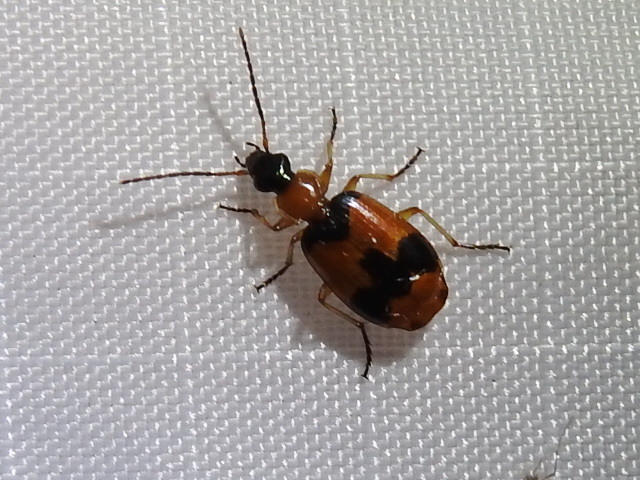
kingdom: Animalia
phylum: Arthropoda
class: Insecta
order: Coleoptera
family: Carabidae
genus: Lebia
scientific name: Lebia pulchella
